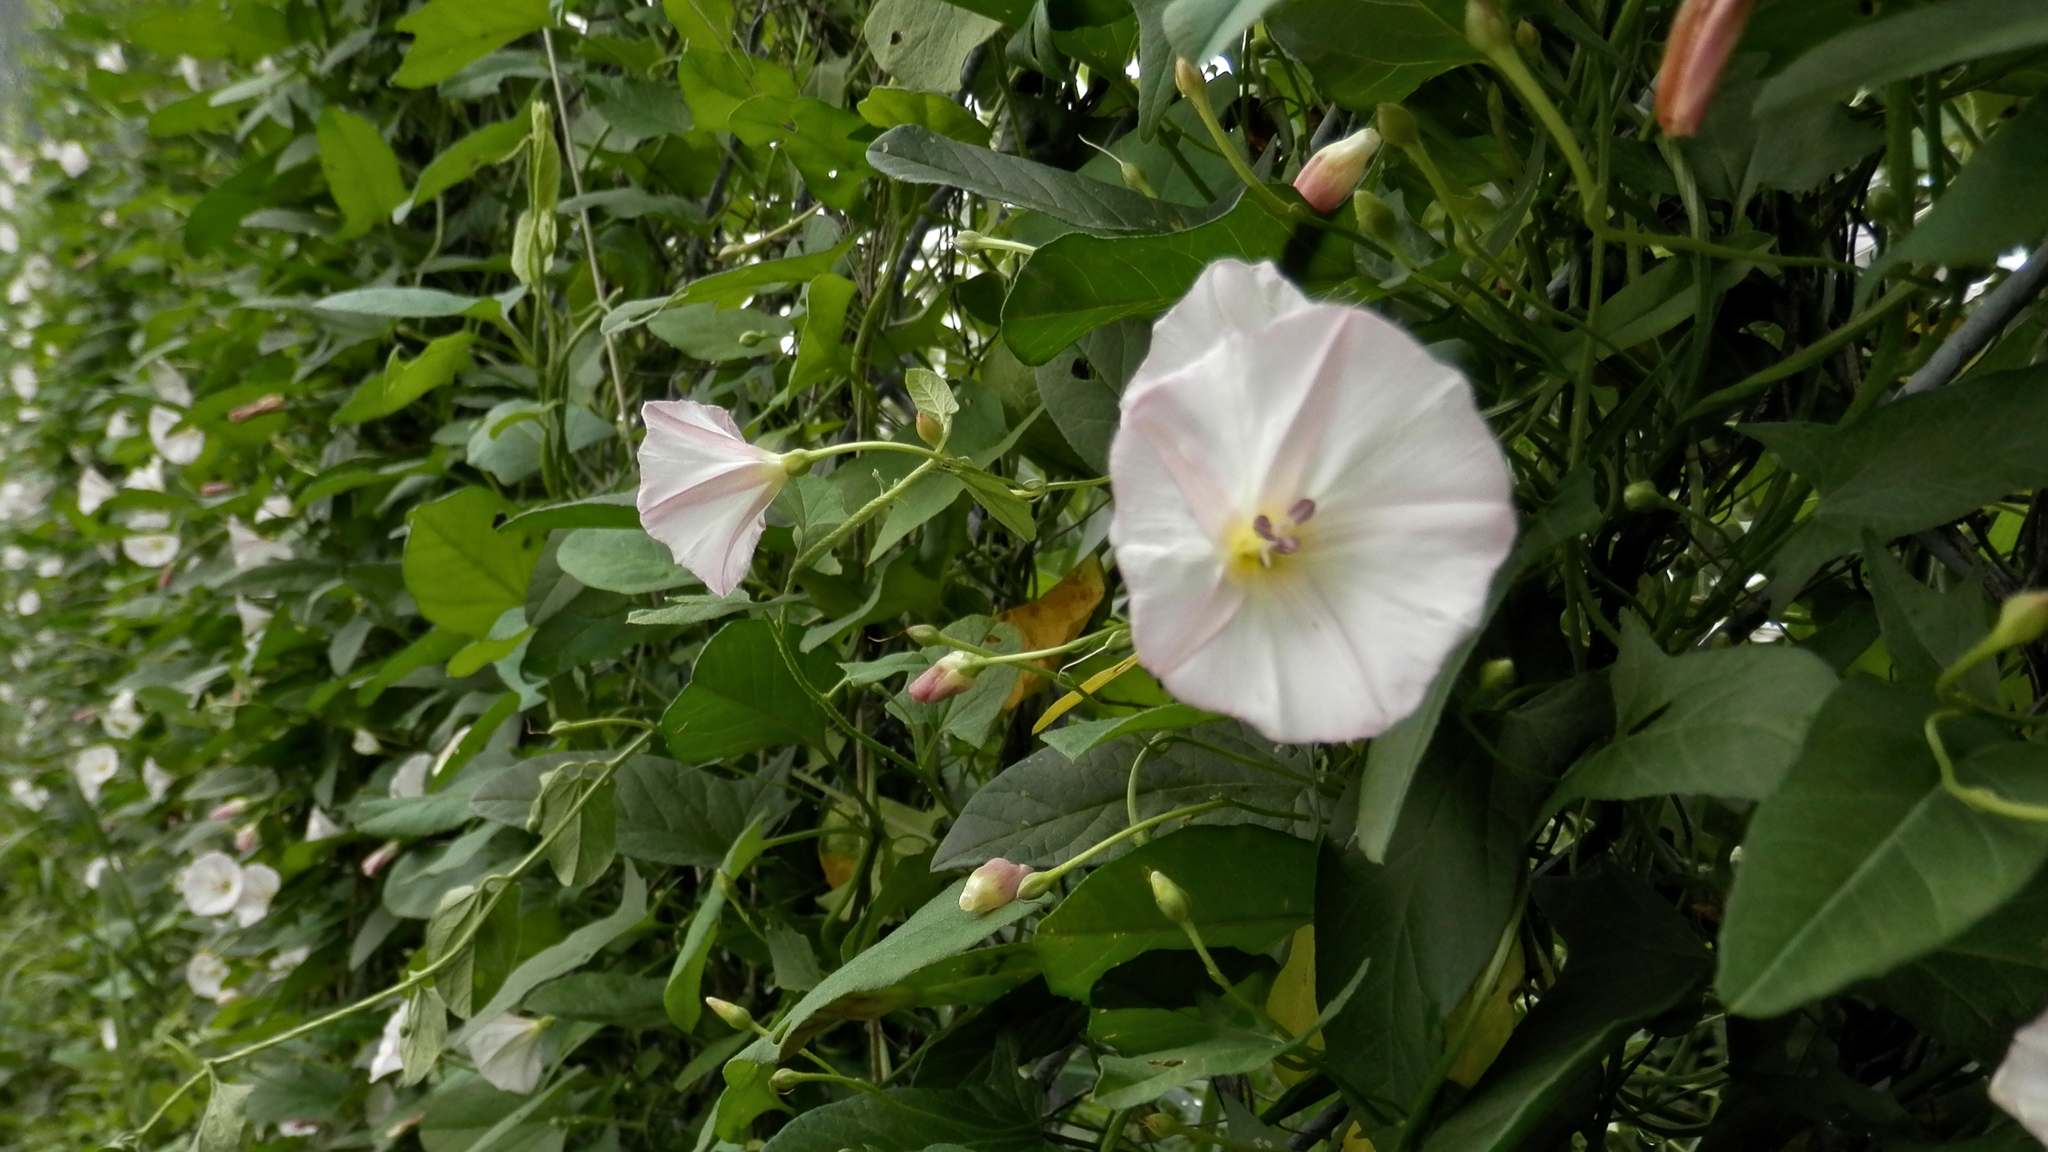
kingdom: Plantae
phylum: Tracheophyta
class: Magnoliopsida
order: Solanales
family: Convolvulaceae
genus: Convolvulus
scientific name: Convolvulus arvensis
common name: Field bindweed
